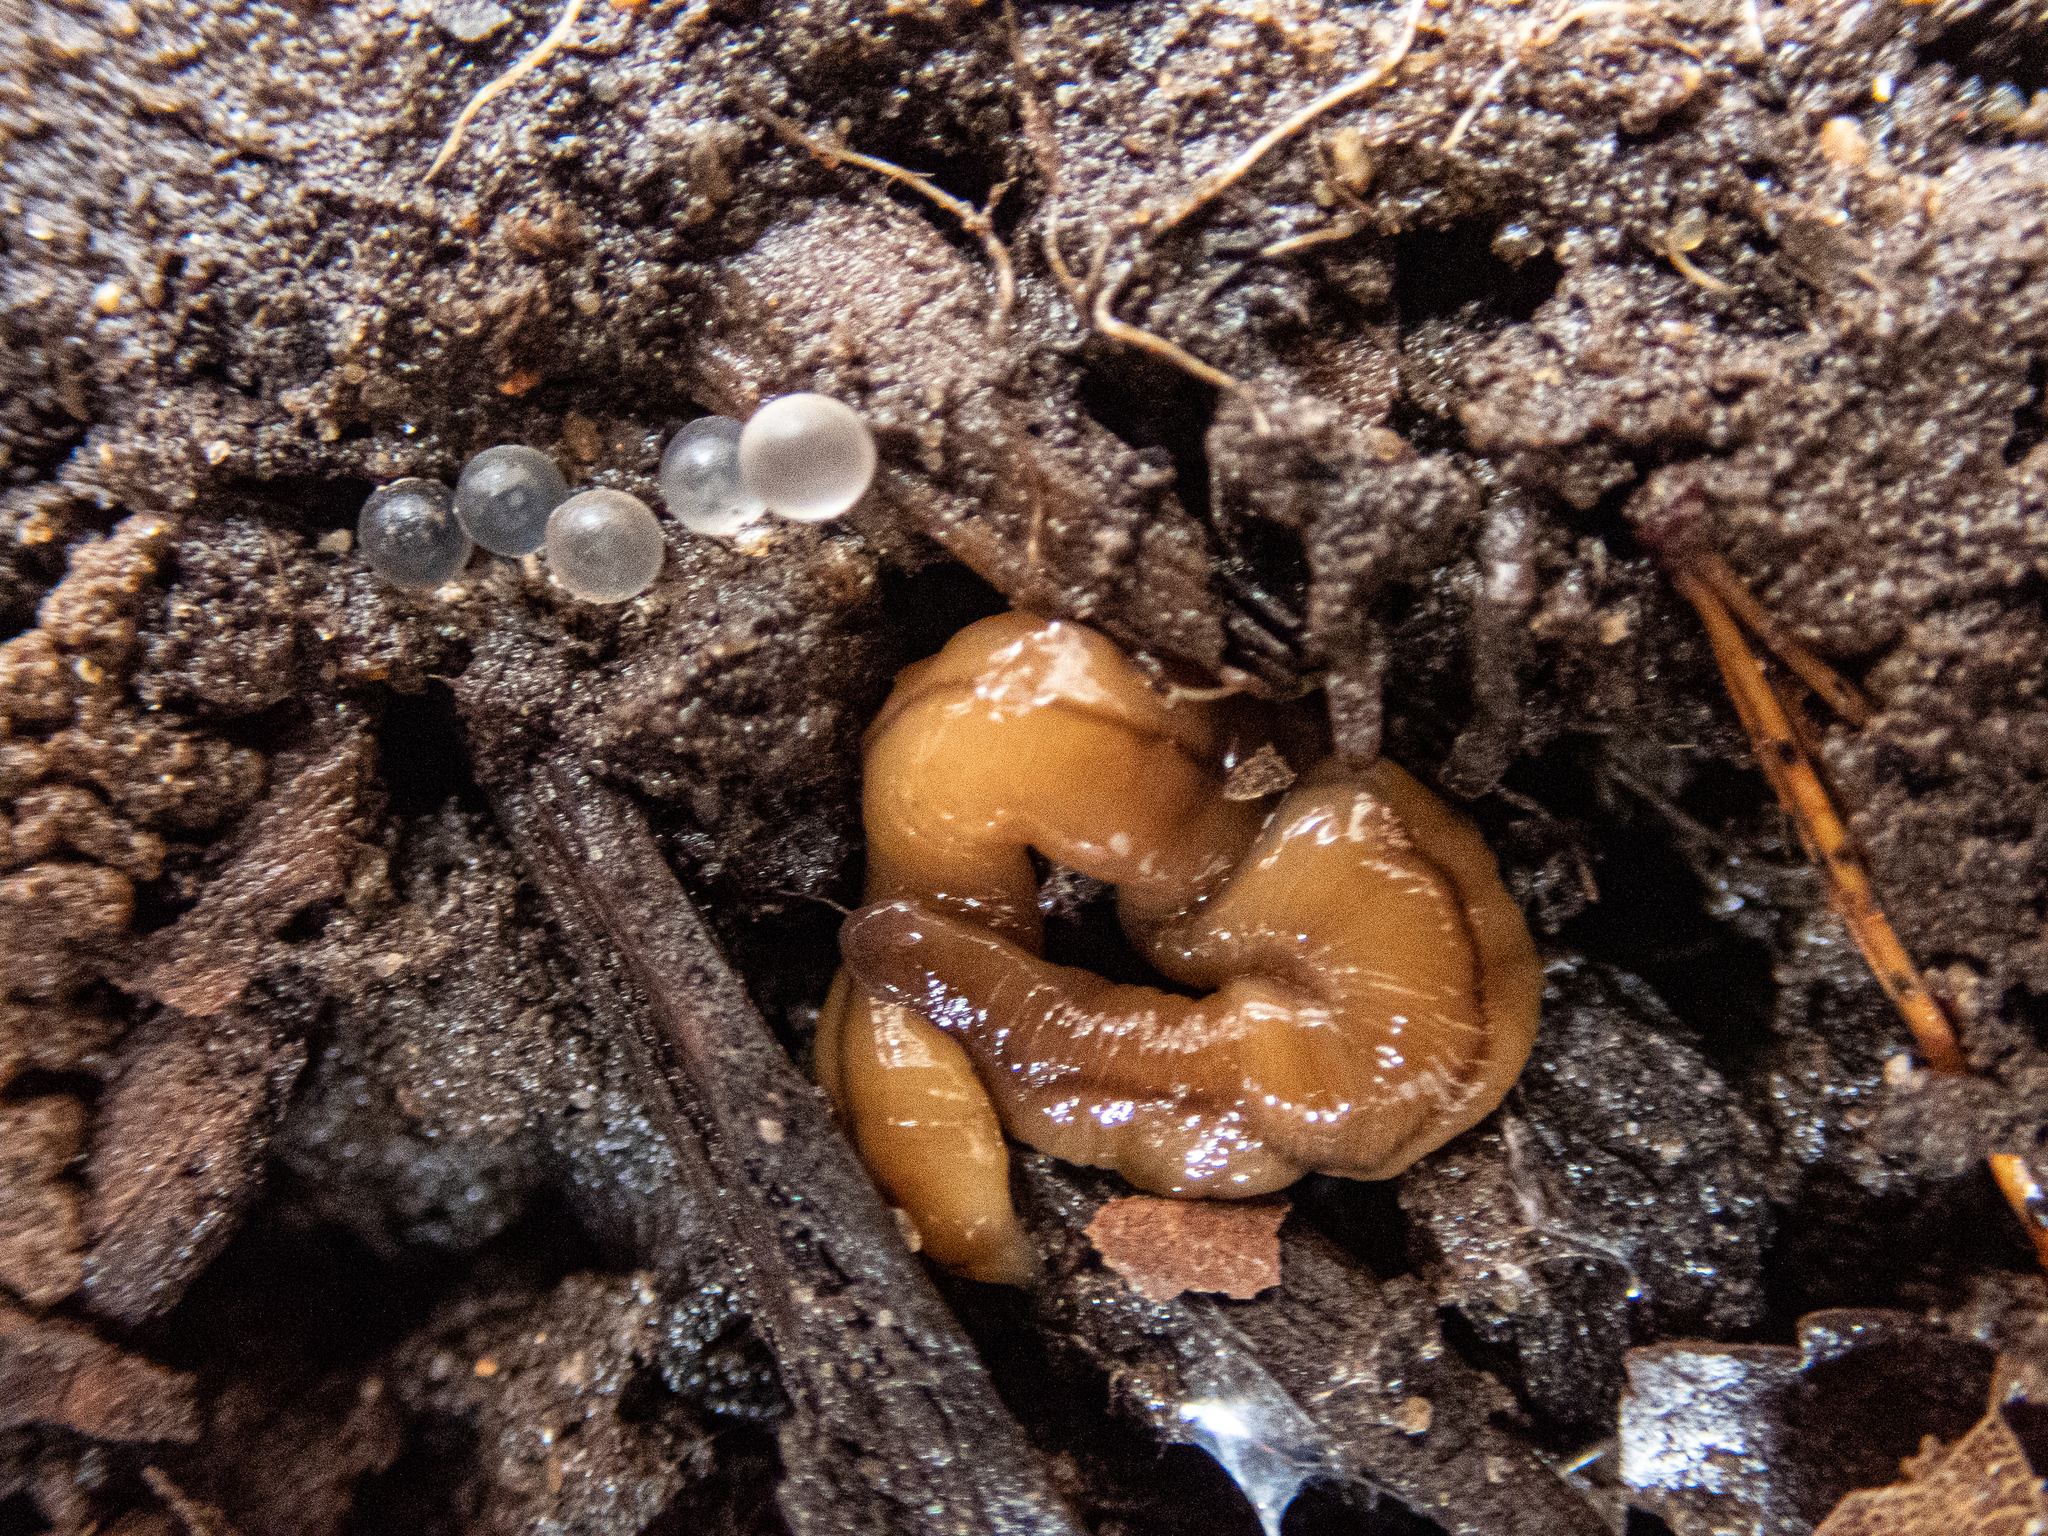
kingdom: Animalia
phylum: Platyhelminthes
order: Tricladida
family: Geoplanidae
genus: Bipalium
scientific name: Bipalium adventitium
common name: Land planarian
